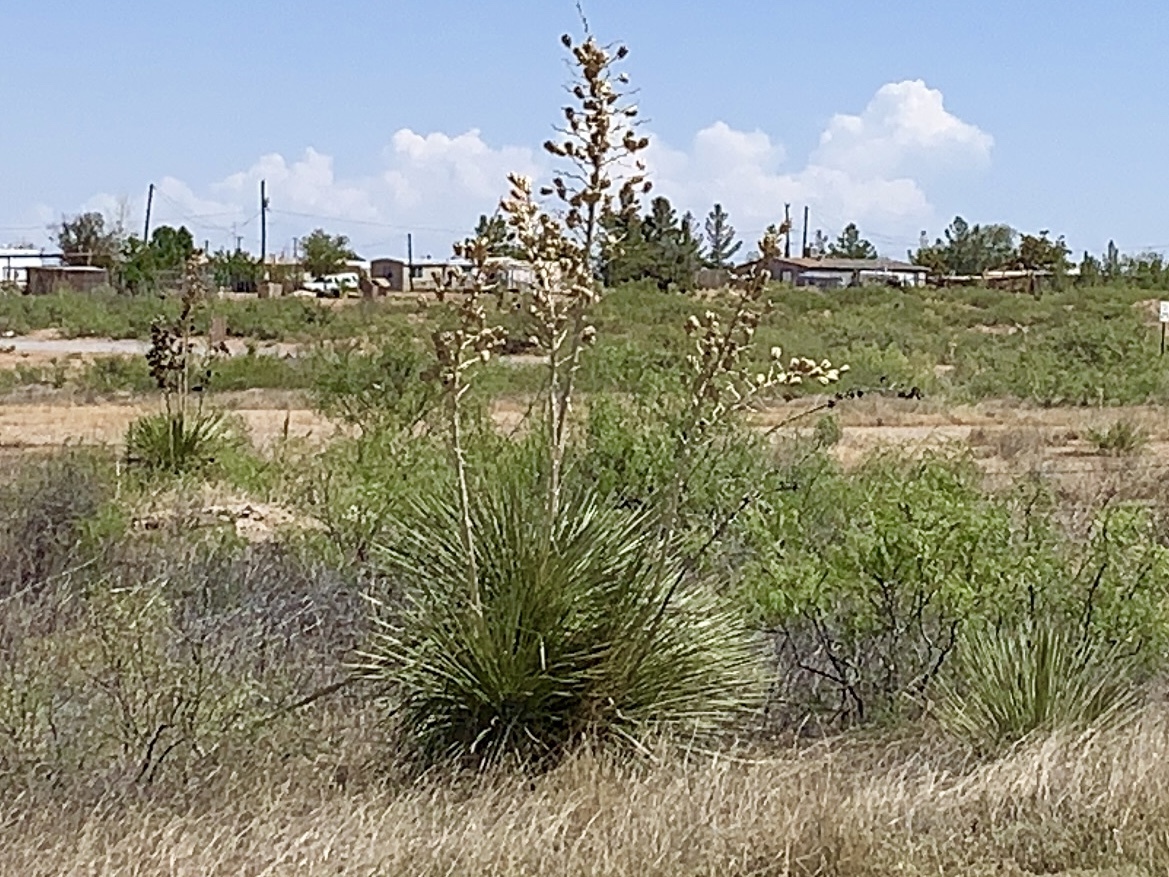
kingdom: Plantae
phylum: Tracheophyta
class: Liliopsida
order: Asparagales
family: Asparagaceae
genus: Yucca
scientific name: Yucca elata
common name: Palmella
